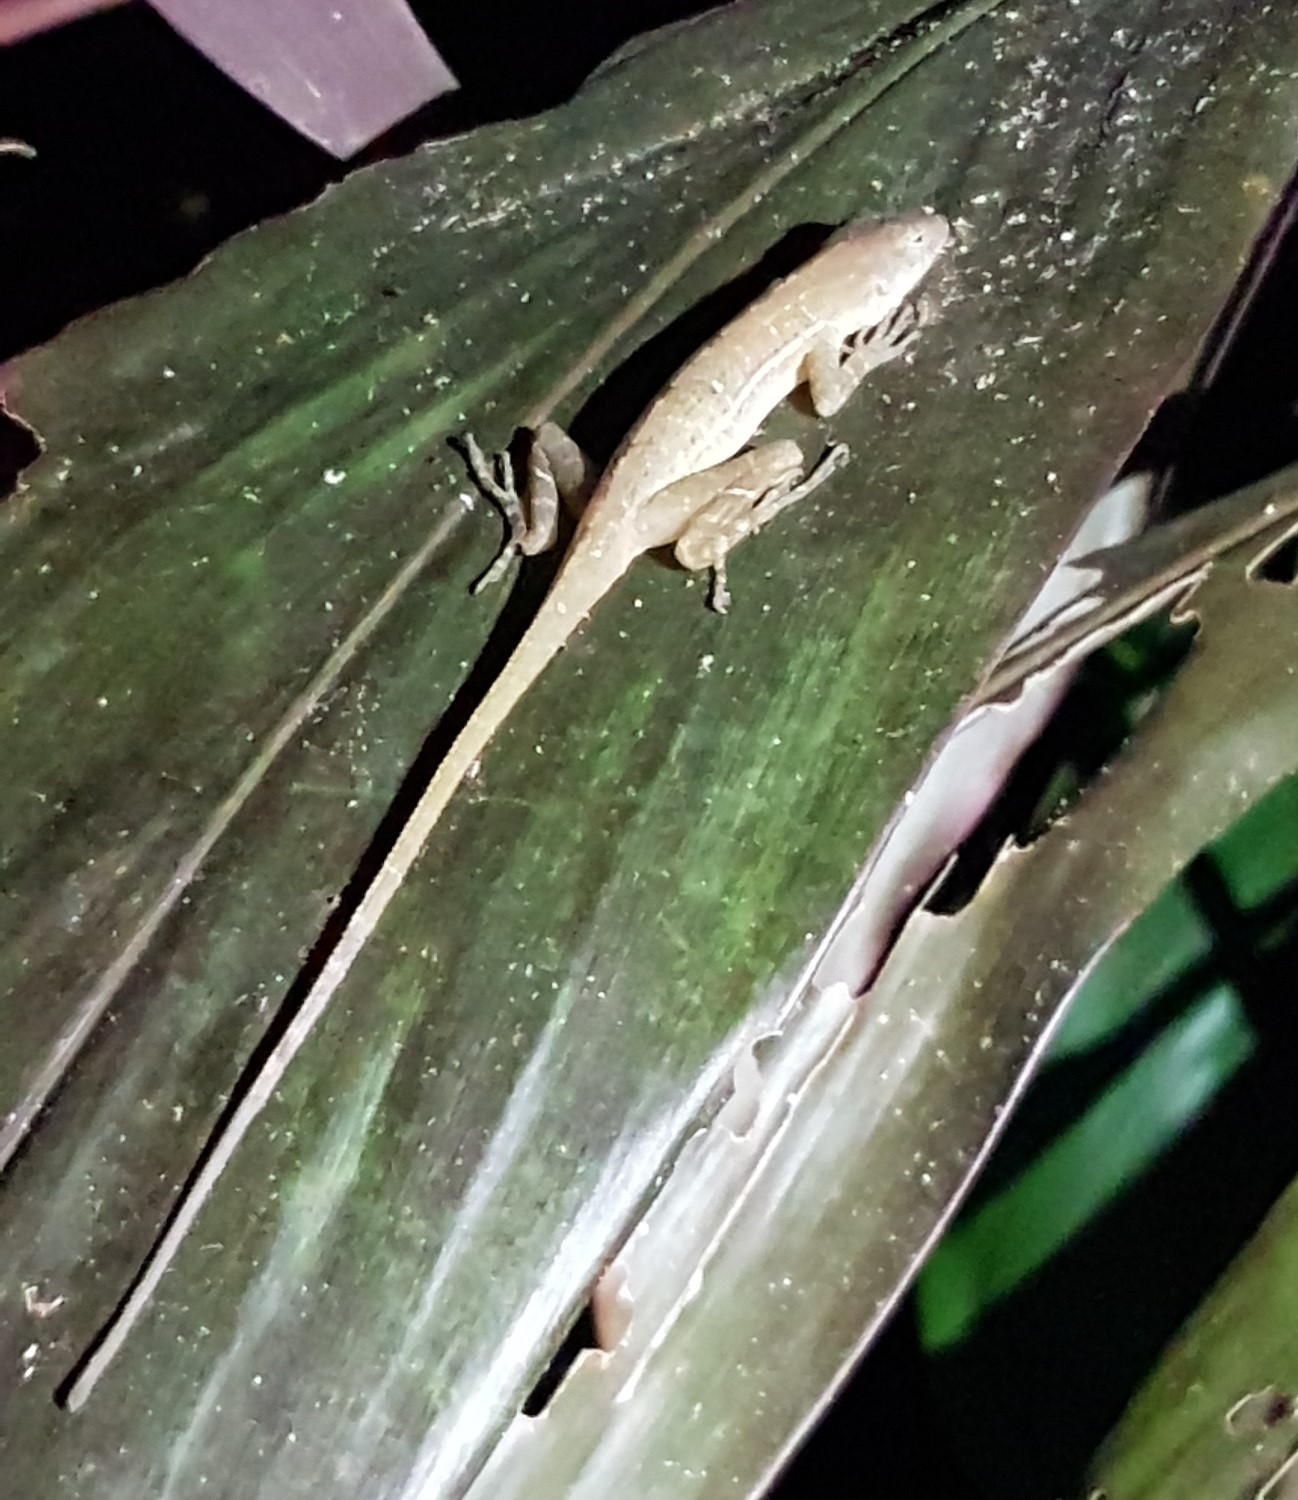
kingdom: Animalia
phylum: Chordata
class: Squamata
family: Dactyloidae
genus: Anolis
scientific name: Anolis osa
